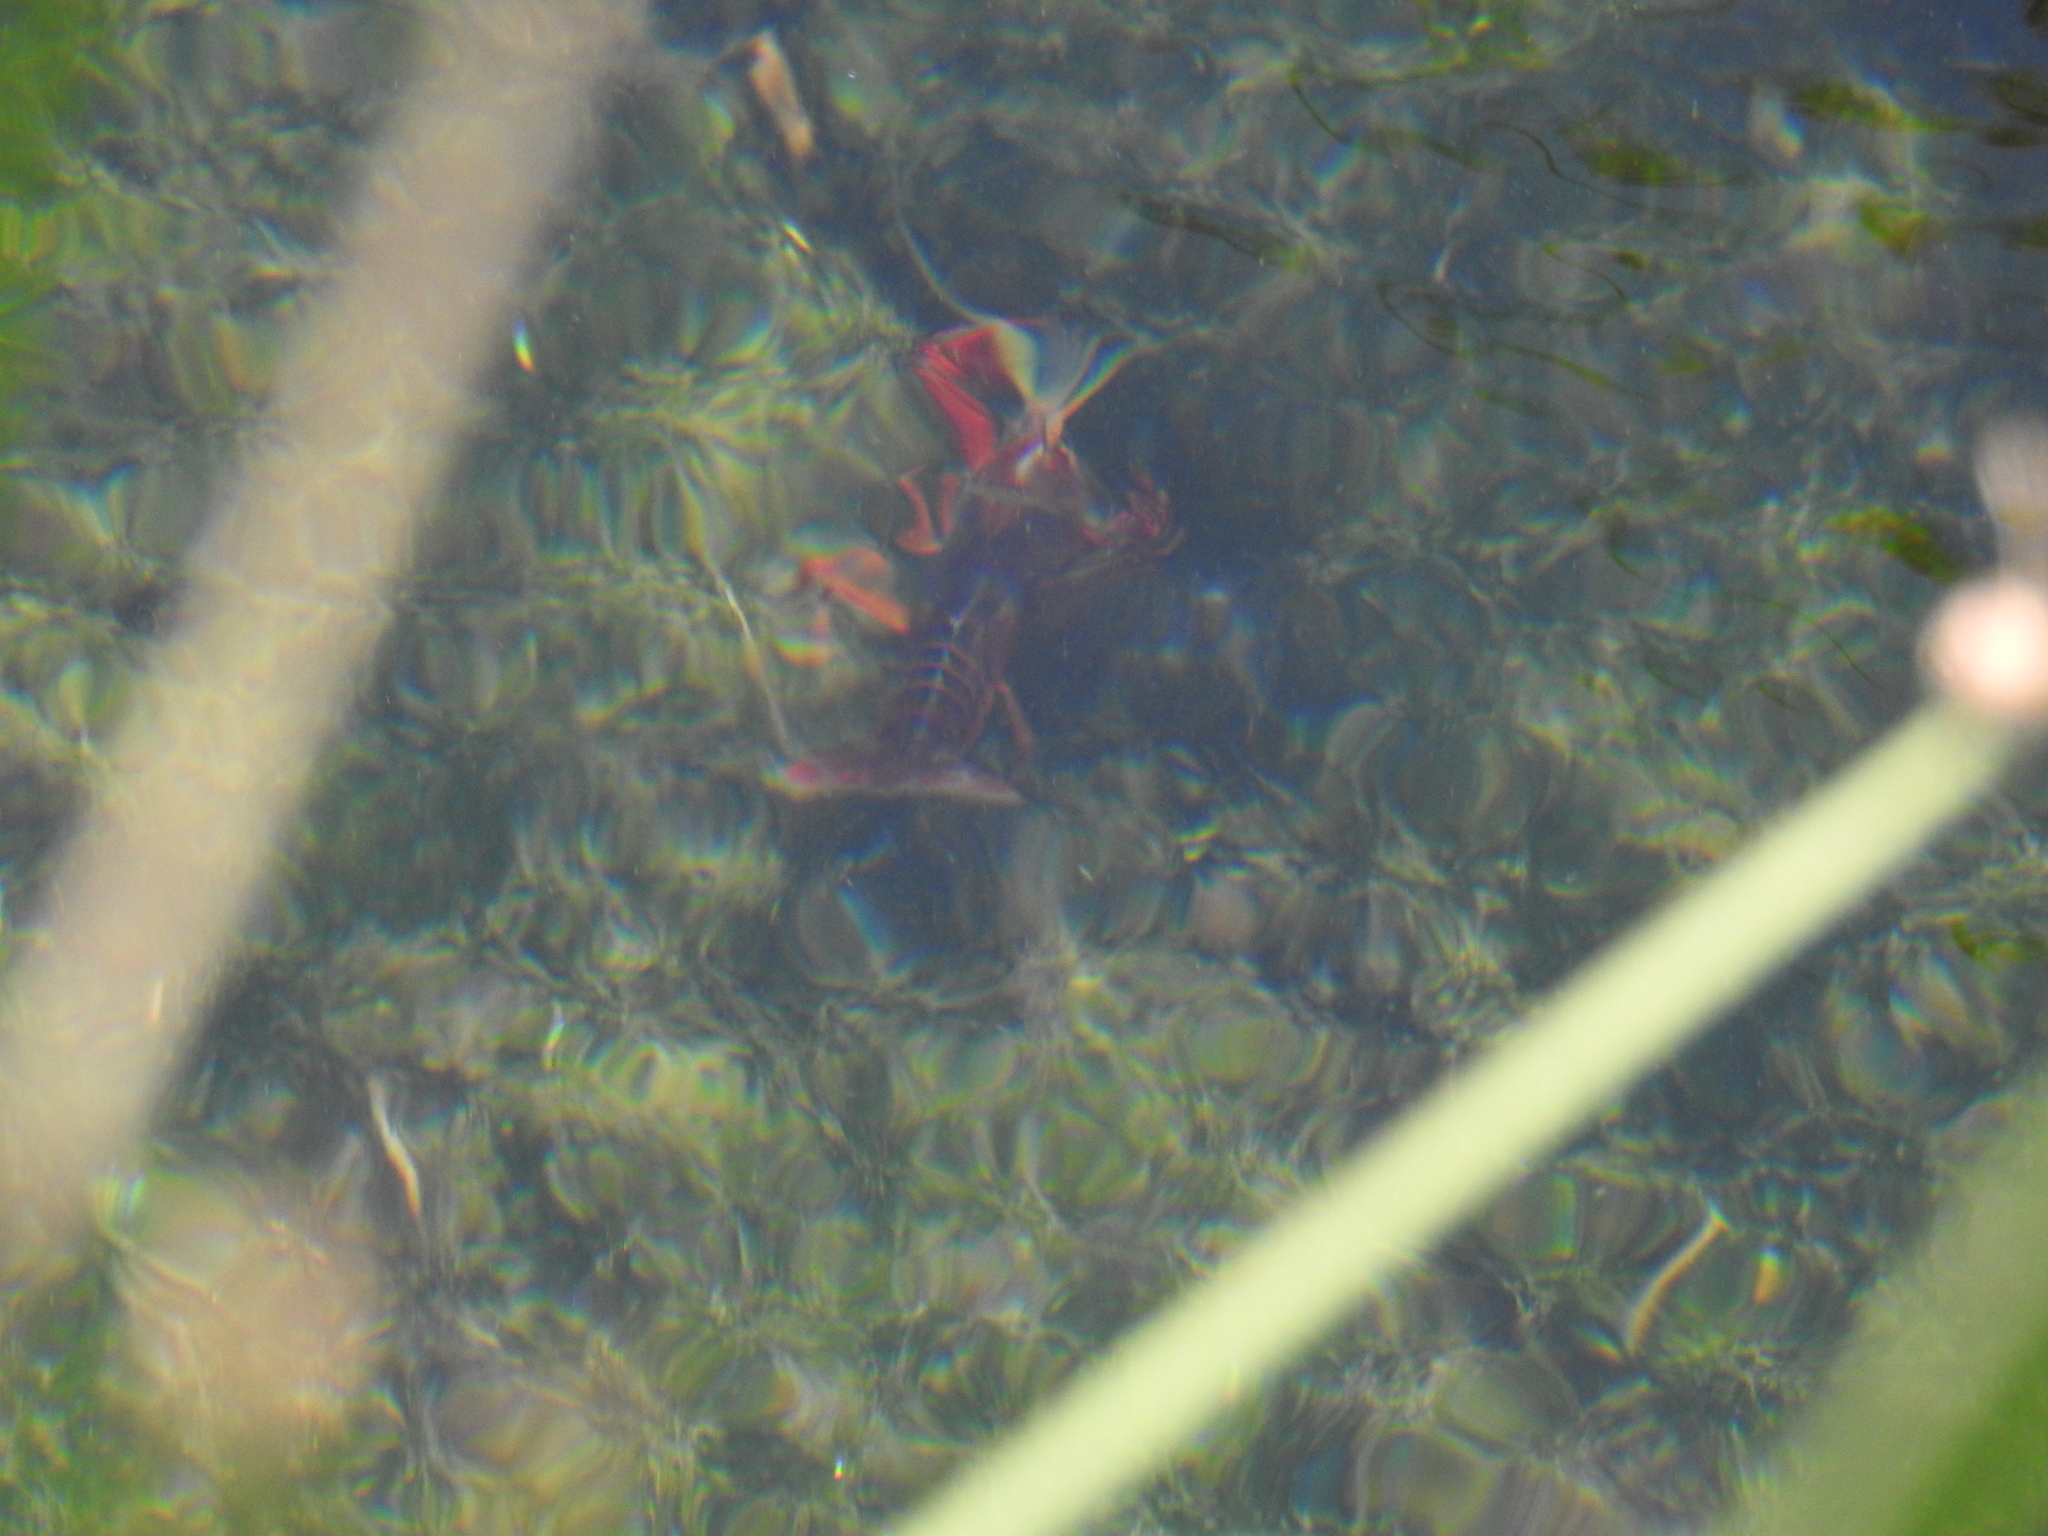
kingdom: Animalia
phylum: Arthropoda
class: Malacostraca
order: Decapoda
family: Cambaridae
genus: Procambarus
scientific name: Procambarus clarkii
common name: Red swamp crayfish
